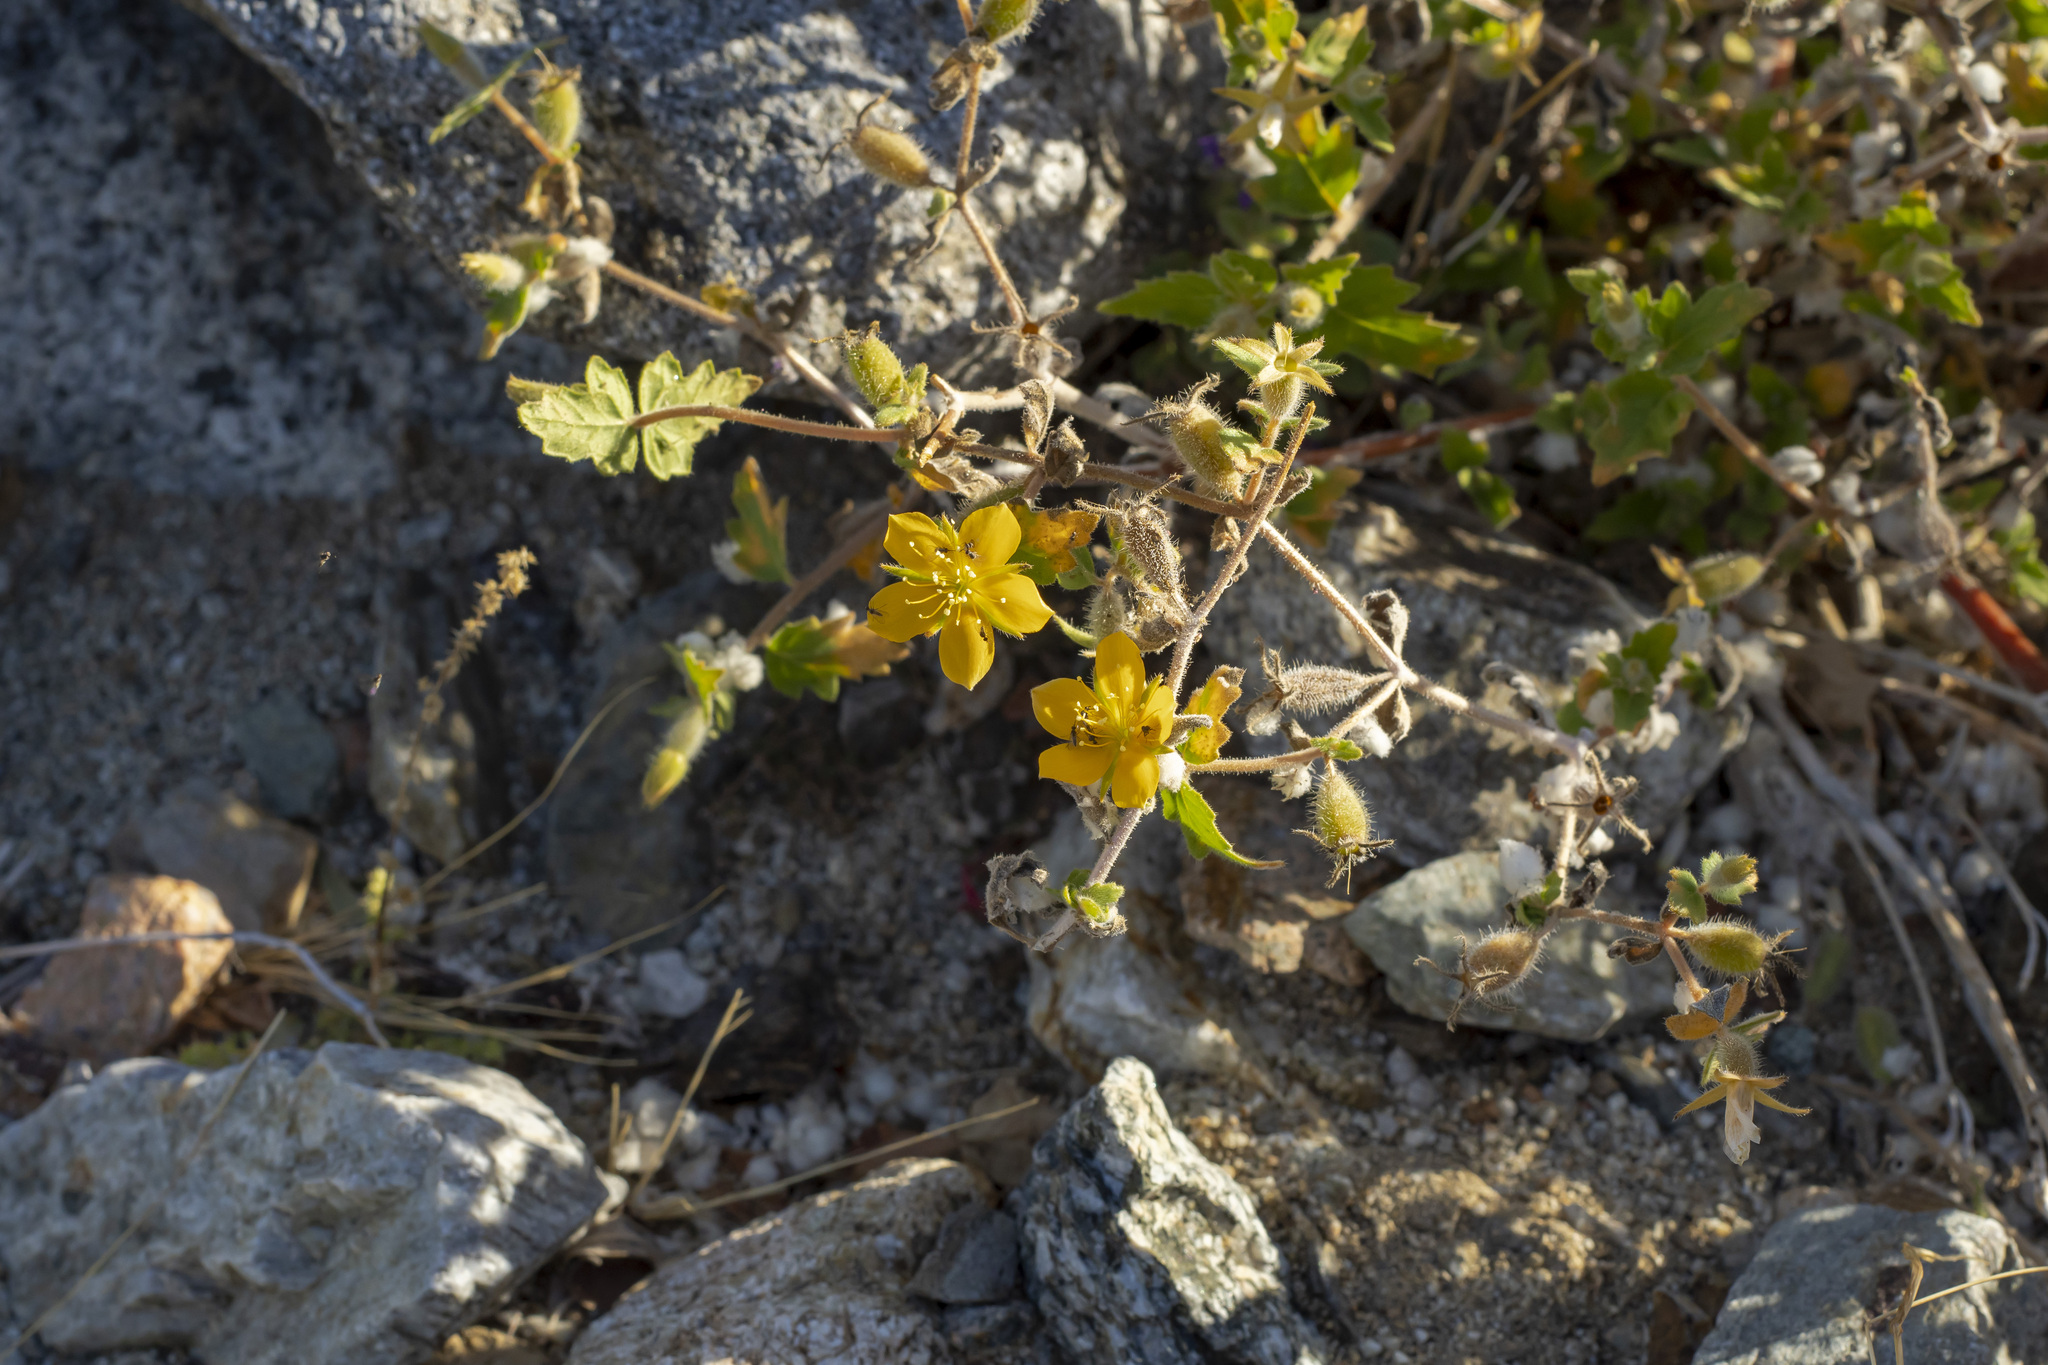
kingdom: Plantae
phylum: Tracheophyta
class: Magnoliopsida
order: Cornales
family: Loasaceae
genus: Mentzelia
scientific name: Mentzelia adhaerens
